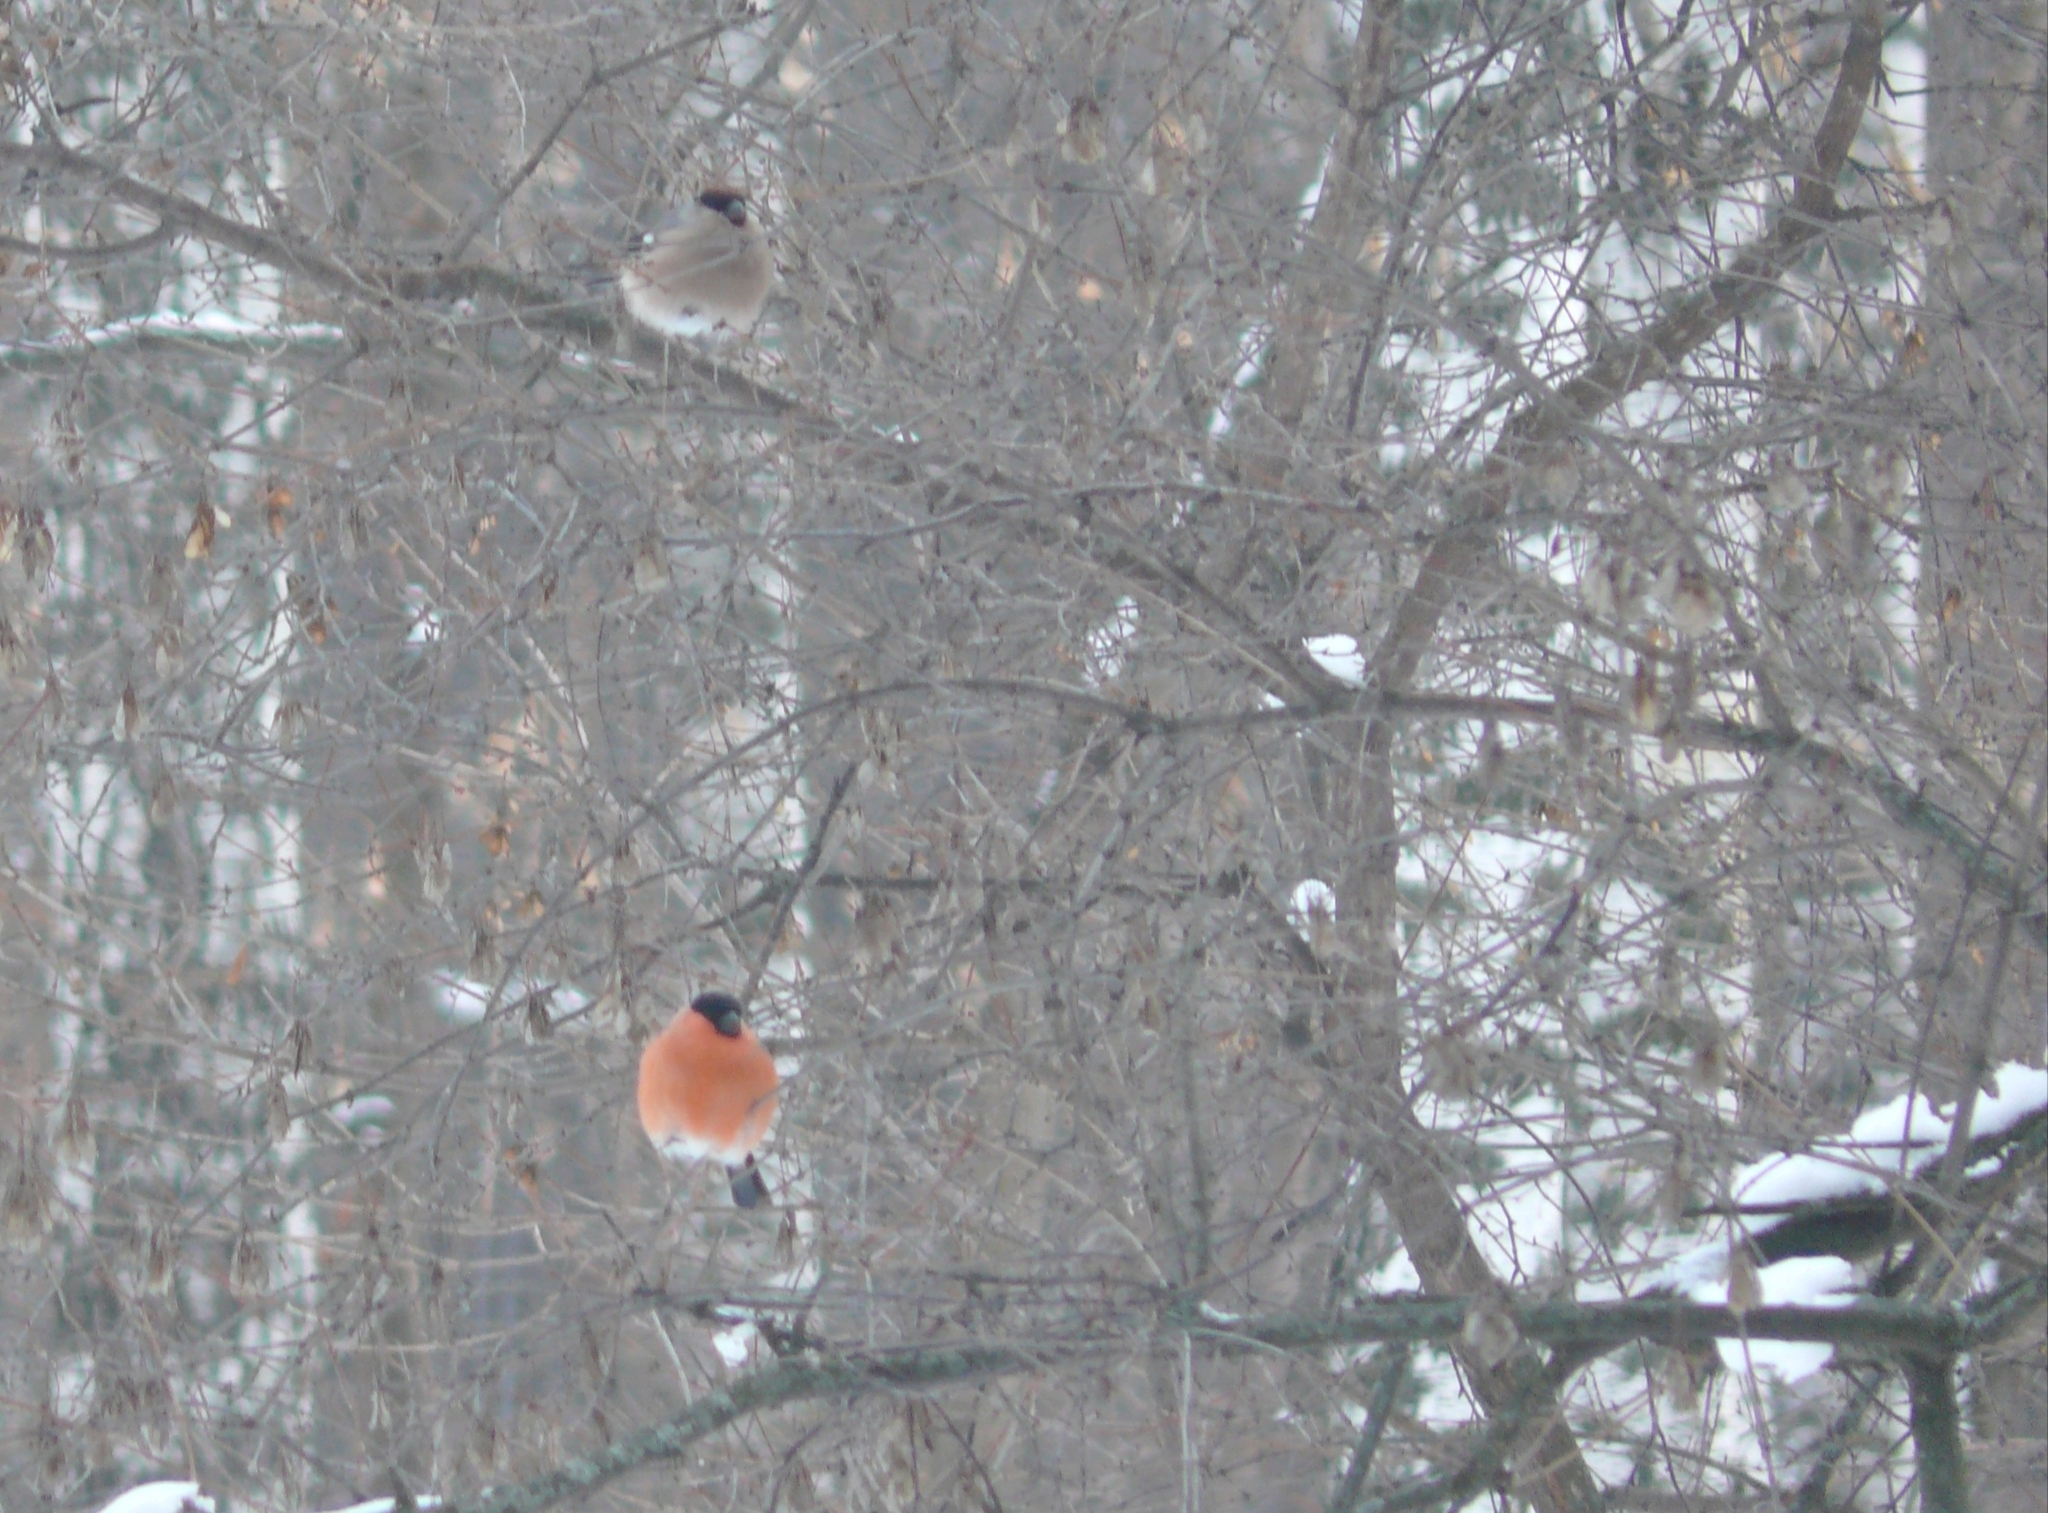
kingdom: Animalia
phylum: Chordata
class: Aves
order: Passeriformes
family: Fringillidae
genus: Pyrrhula
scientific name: Pyrrhula pyrrhula
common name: Eurasian bullfinch
